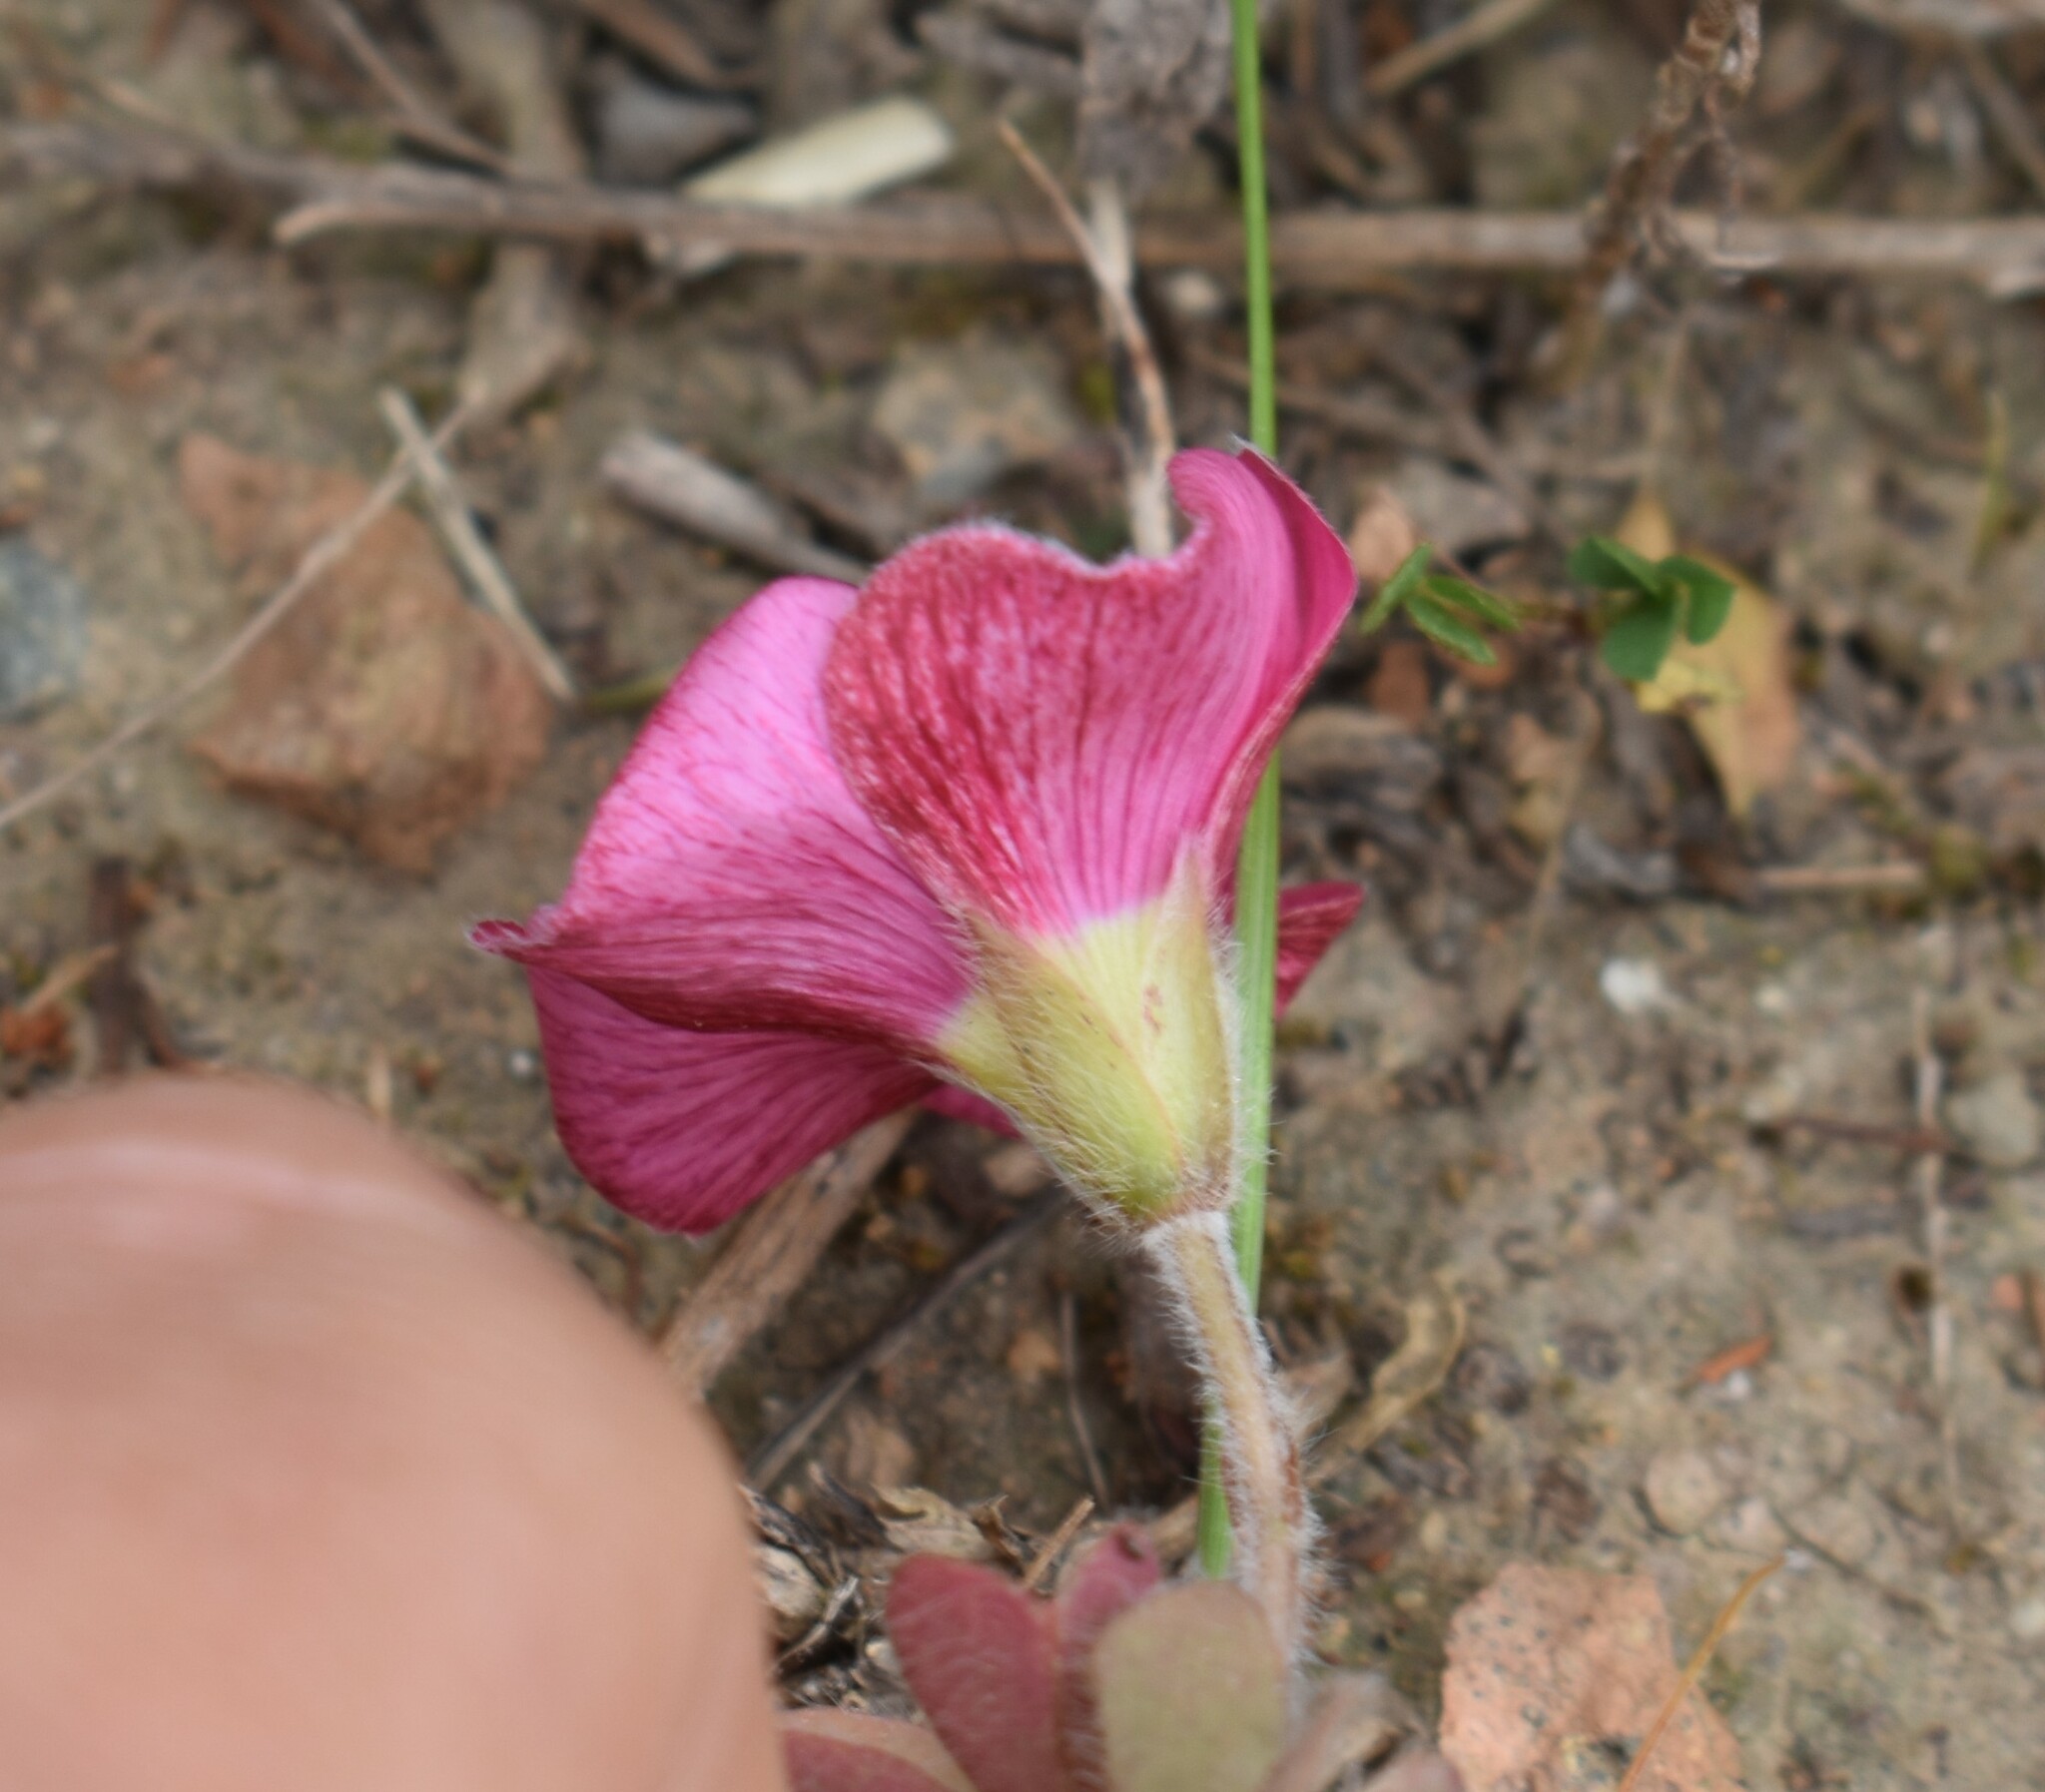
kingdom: Plantae
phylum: Tracheophyta
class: Magnoliopsida
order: Oxalidales
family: Oxalidaceae
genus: Oxalis
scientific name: Oxalis obtusa
